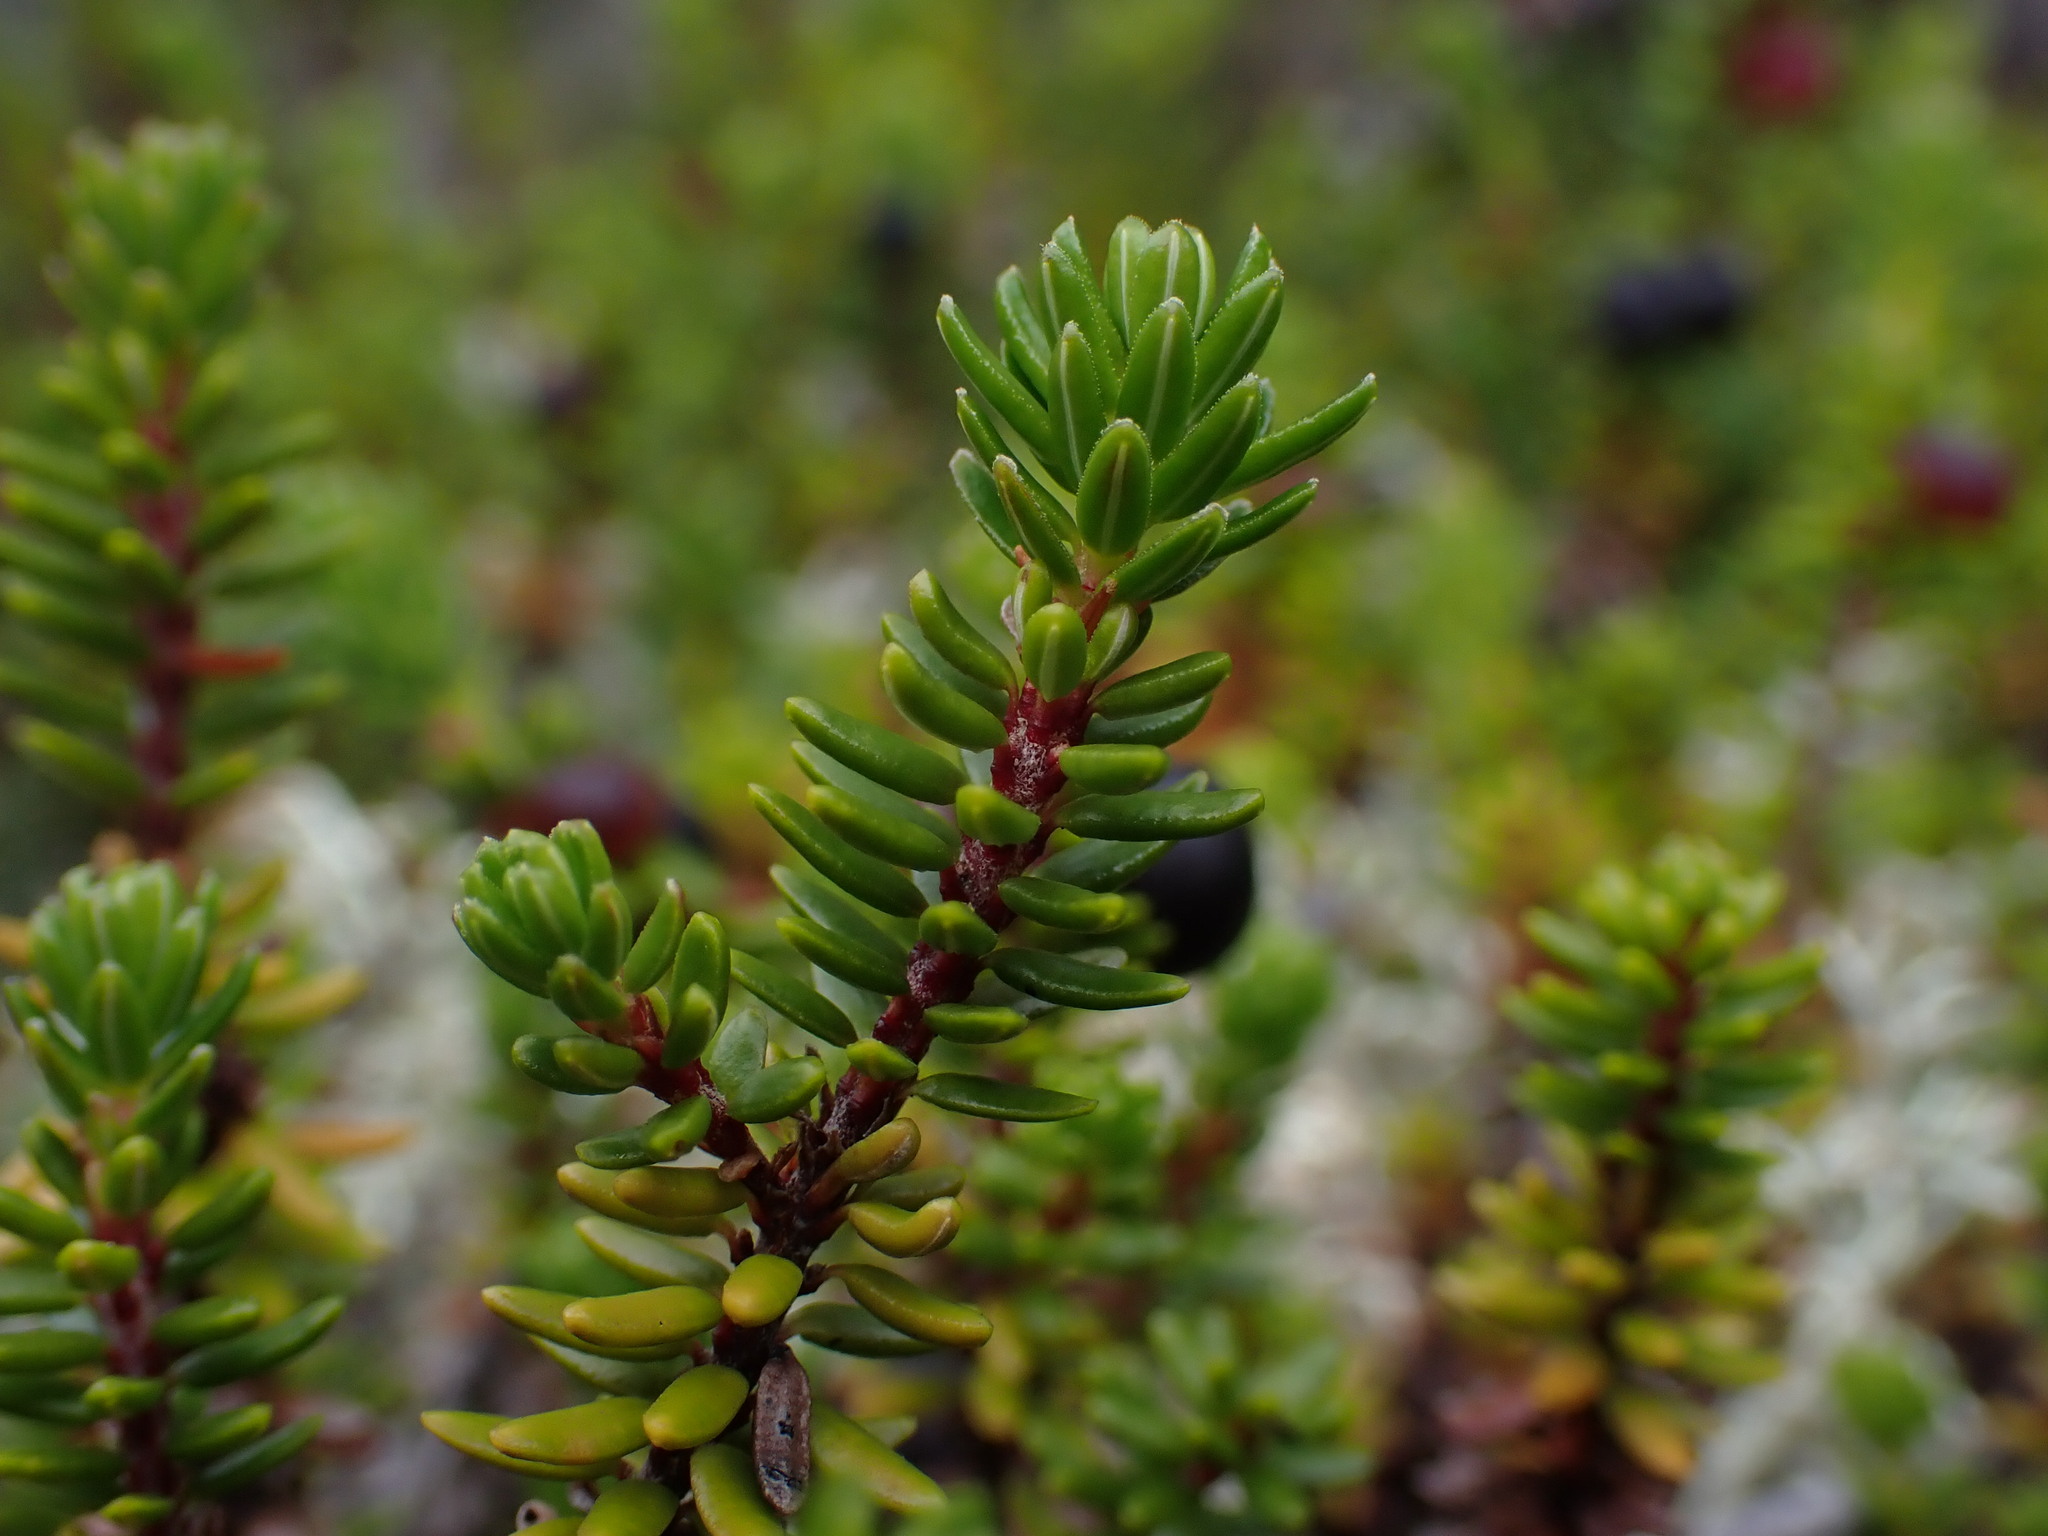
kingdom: Plantae
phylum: Tracheophyta
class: Magnoliopsida
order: Ericales
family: Ericaceae
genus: Empetrum
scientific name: Empetrum nigrum
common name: Black crowberry
